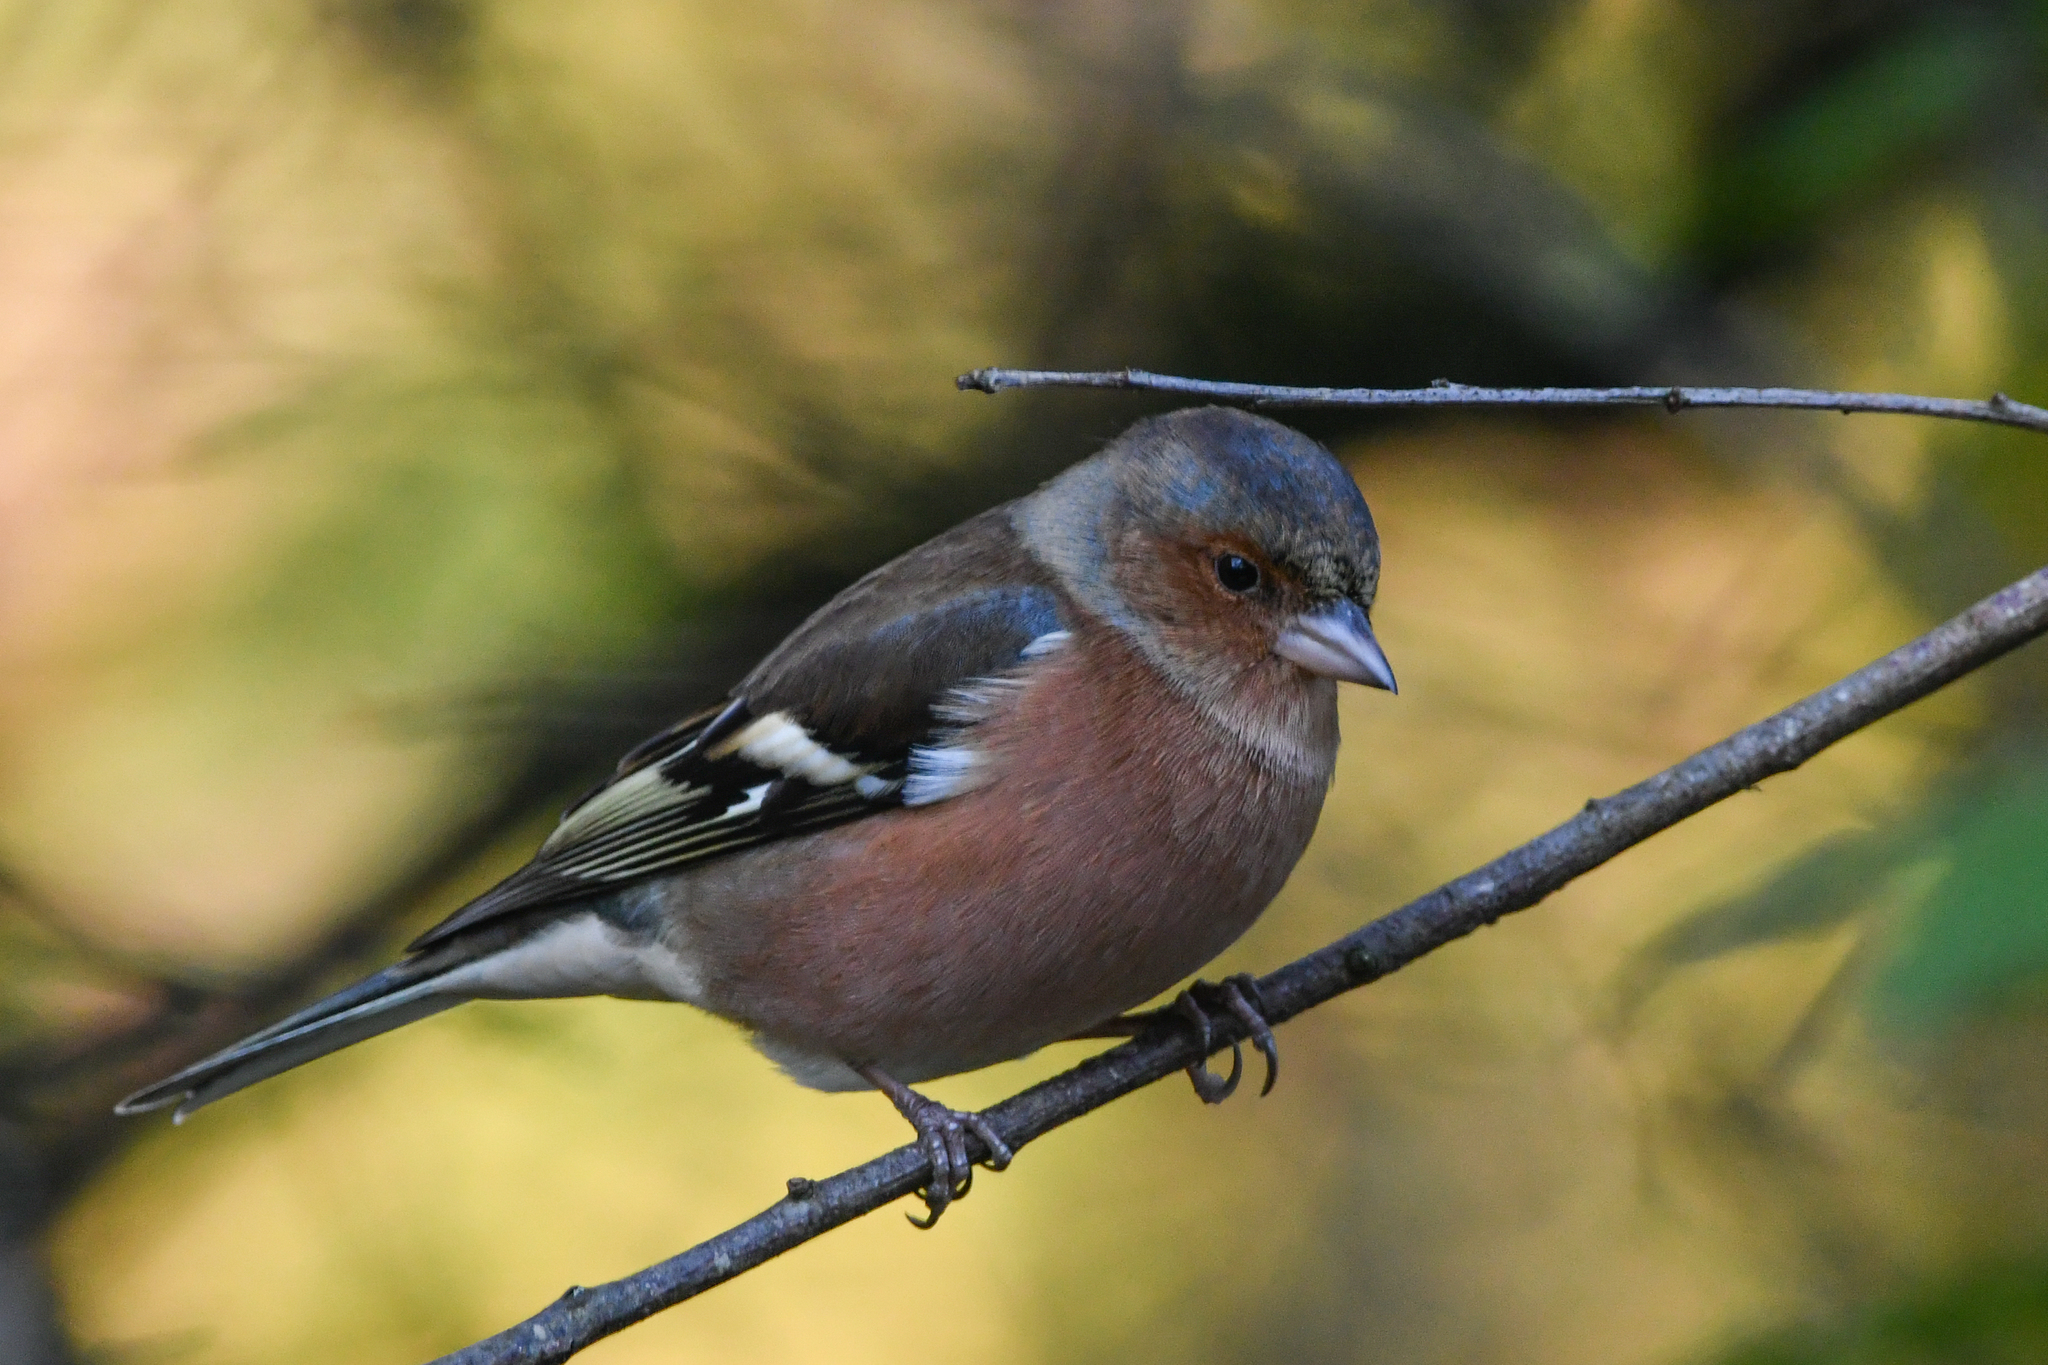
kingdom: Animalia
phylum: Chordata
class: Aves
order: Passeriformes
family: Fringillidae
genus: Fringilla
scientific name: Fringilla coelebs
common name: Common chaffinch
